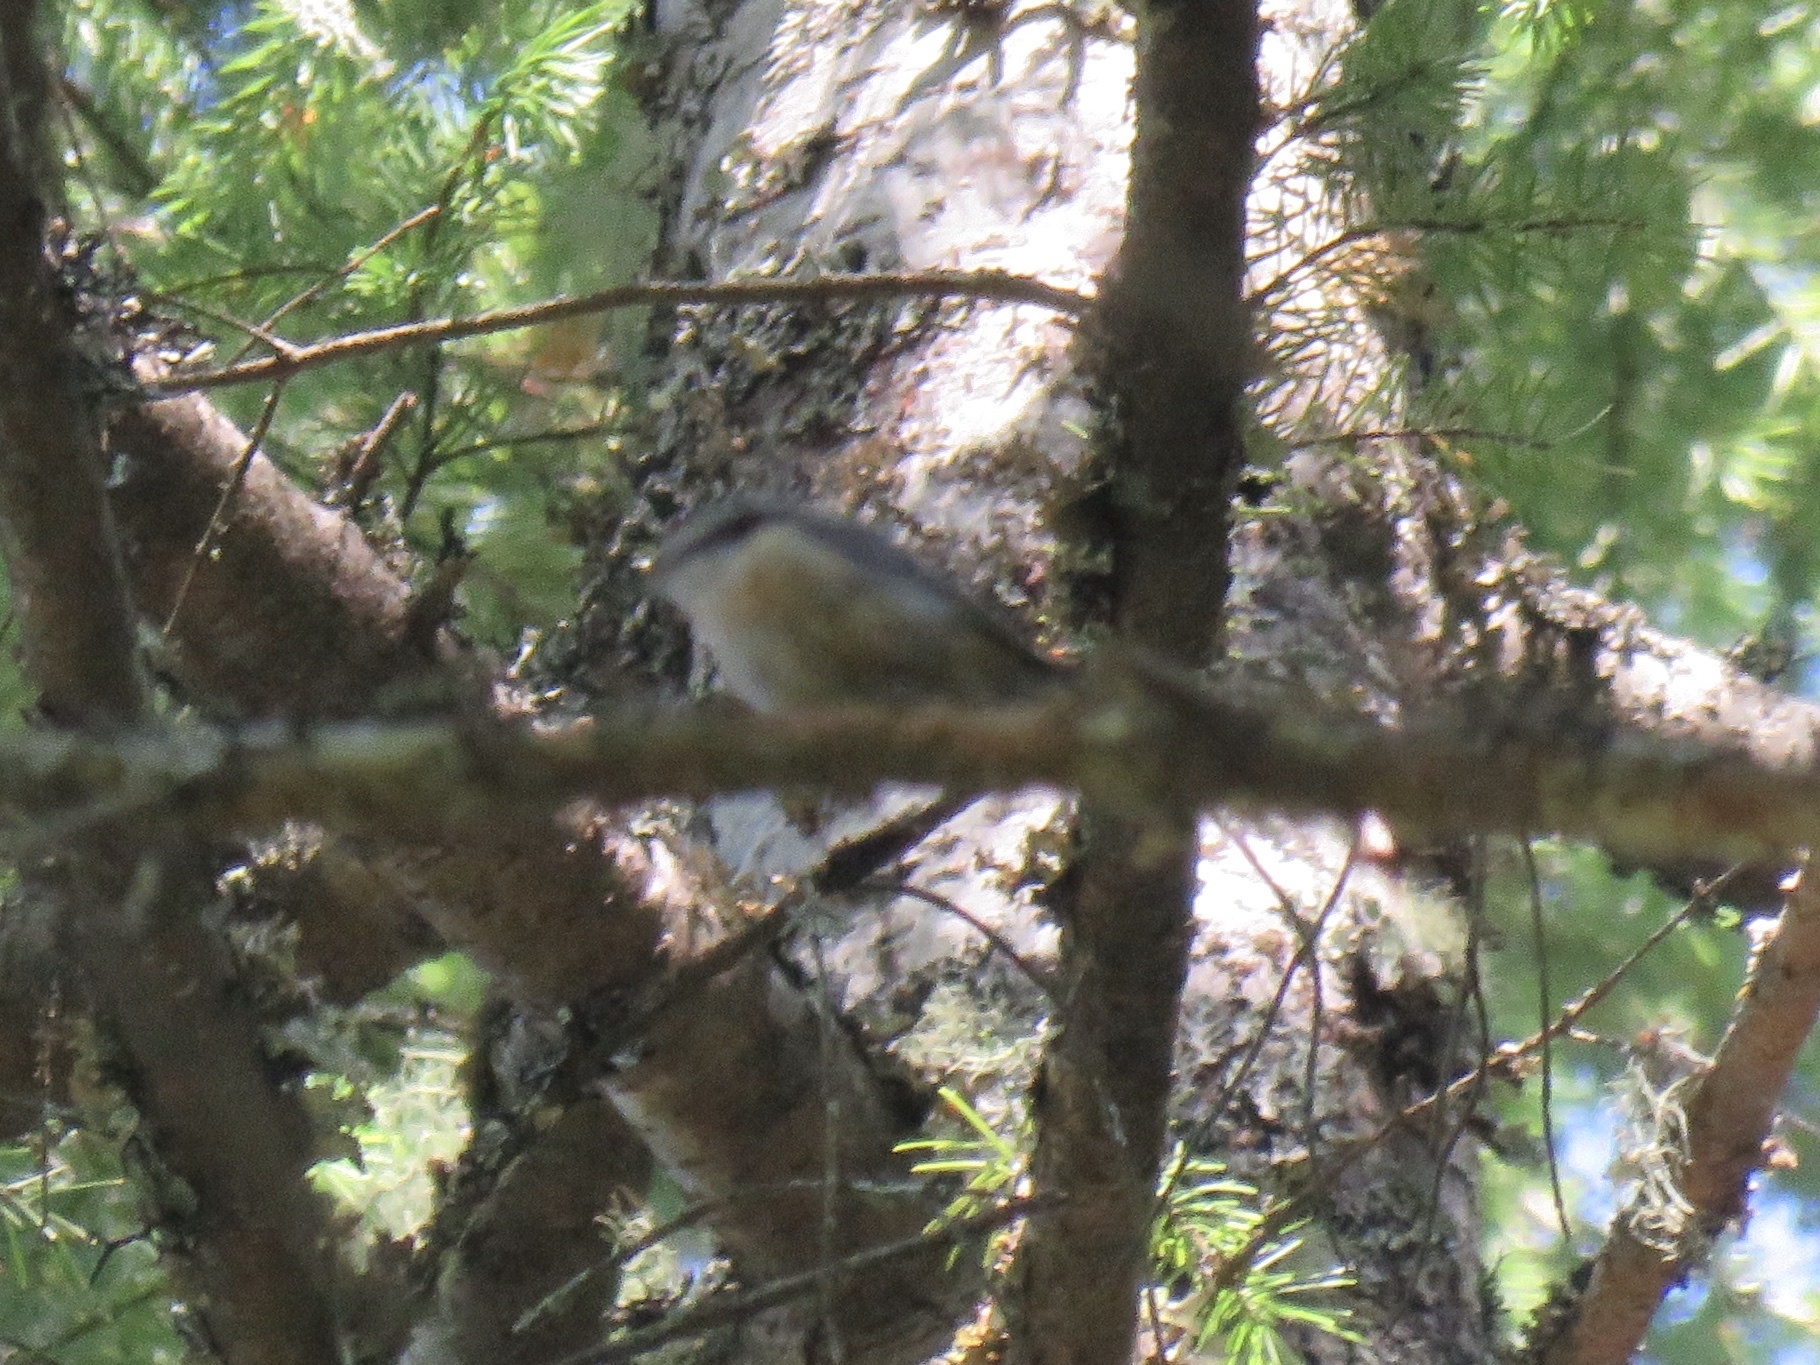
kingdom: Animalia
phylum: Chordata
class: Aves
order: Passeriformes
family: Sittidae
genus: Sitta
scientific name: Sitta canadensis
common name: Red-breasted nuthatch
